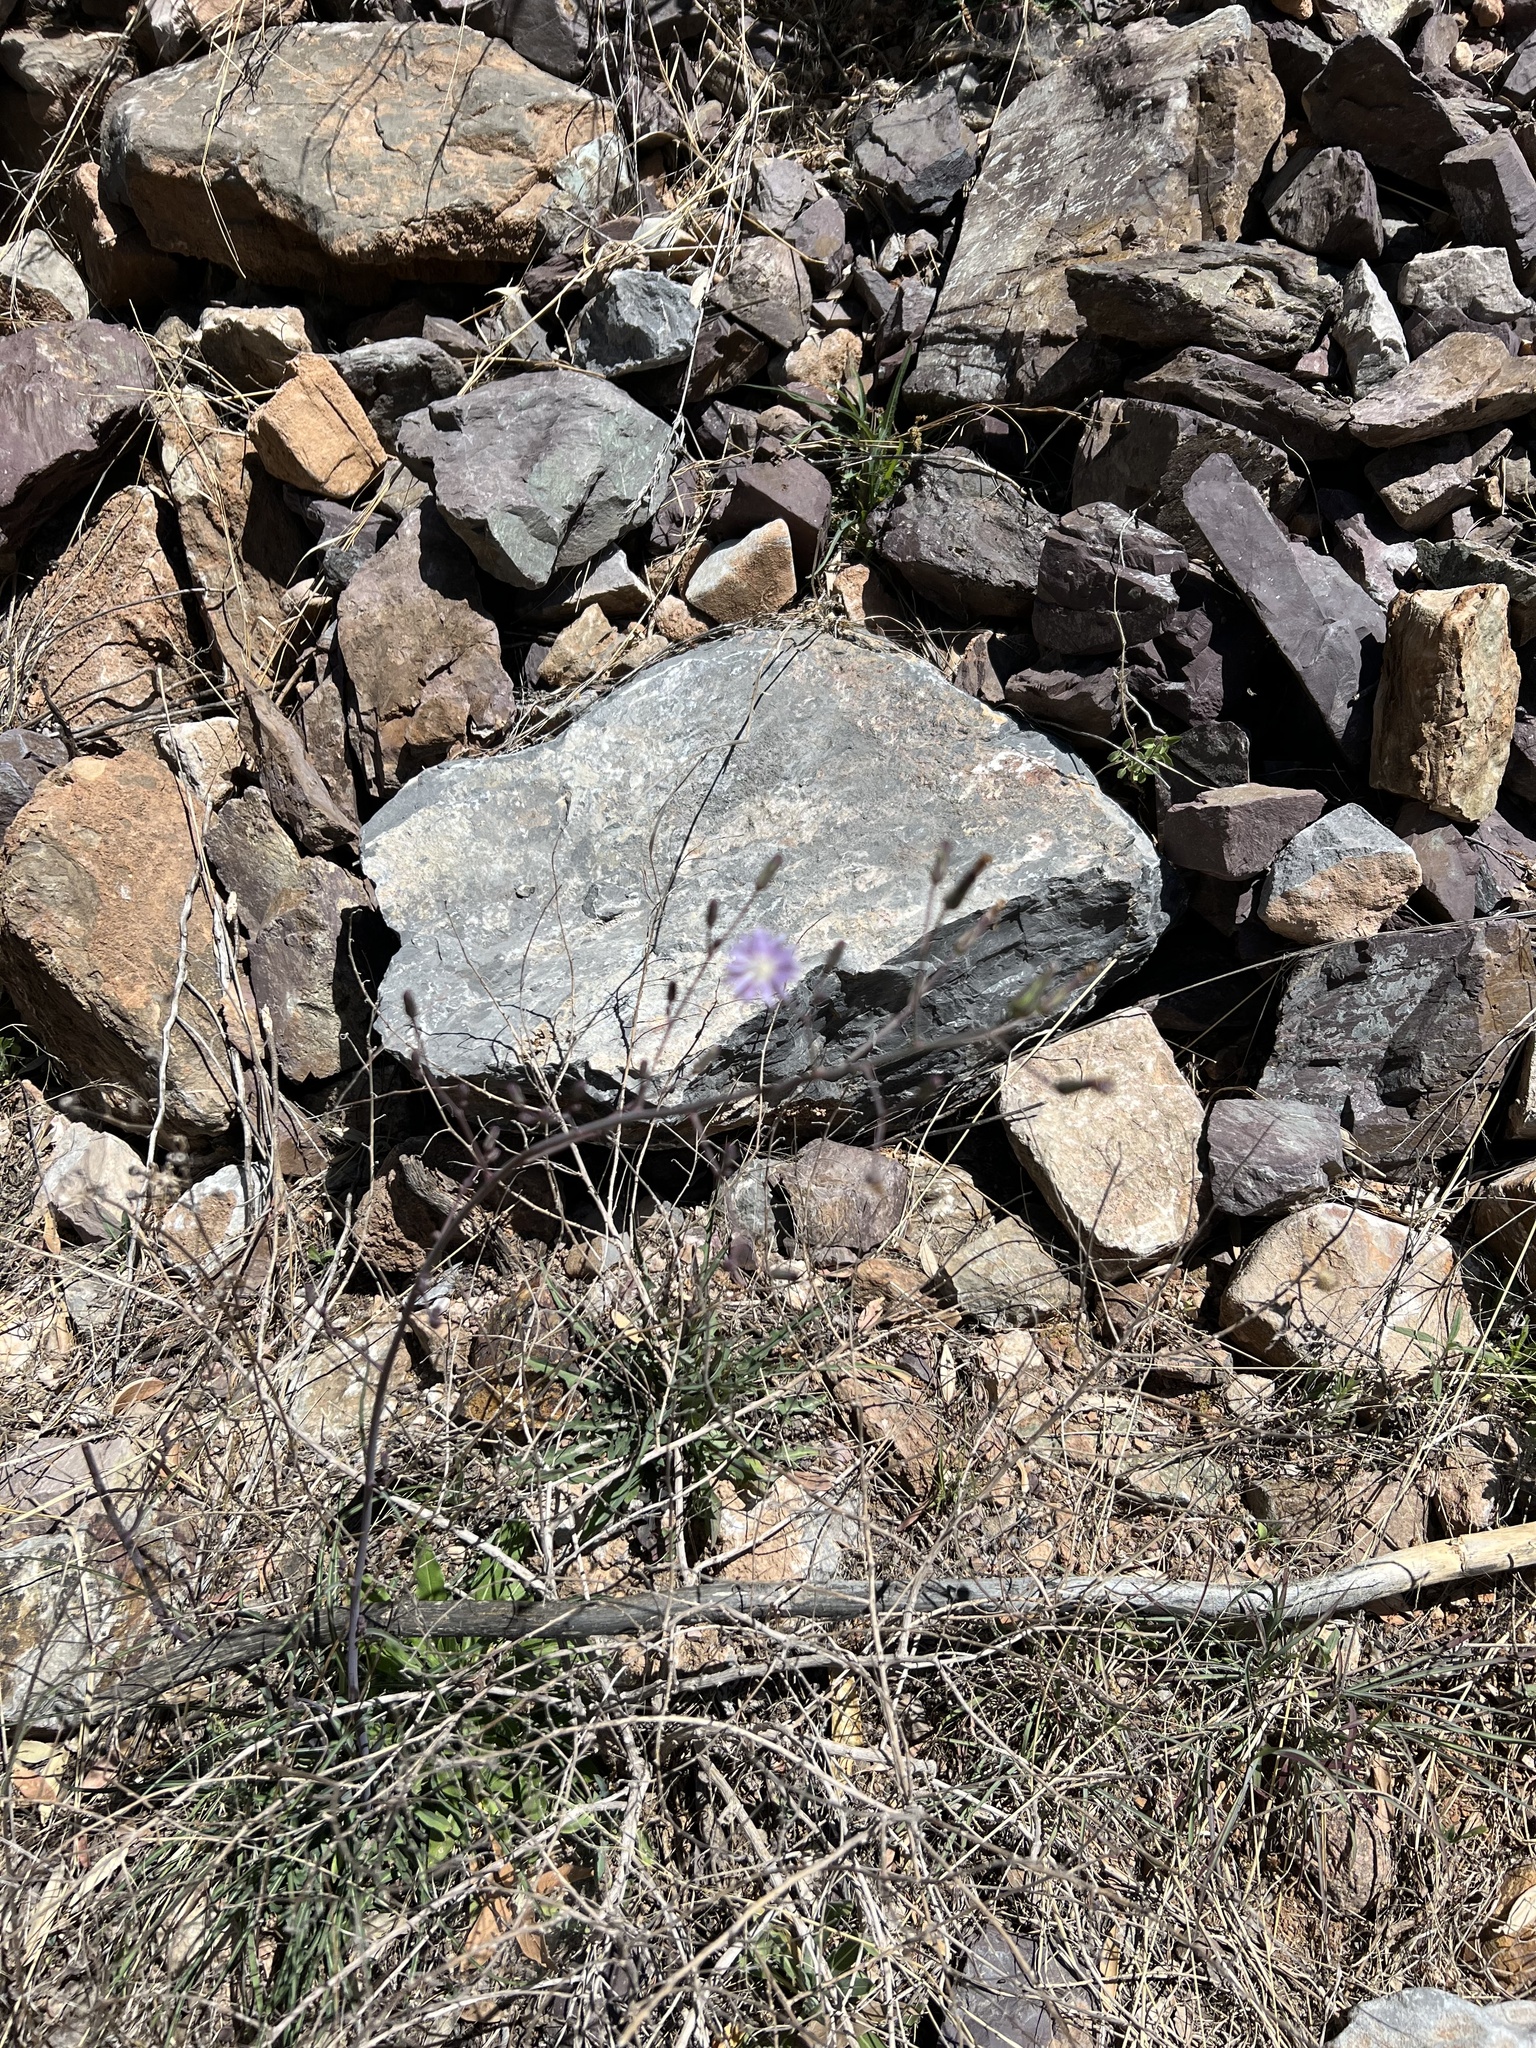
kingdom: Plantae
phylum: Tracheophyta
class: Magnoliopsida
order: Asterales
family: Asteraceae
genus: Lactuca
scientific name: Lactuca graminifolia
